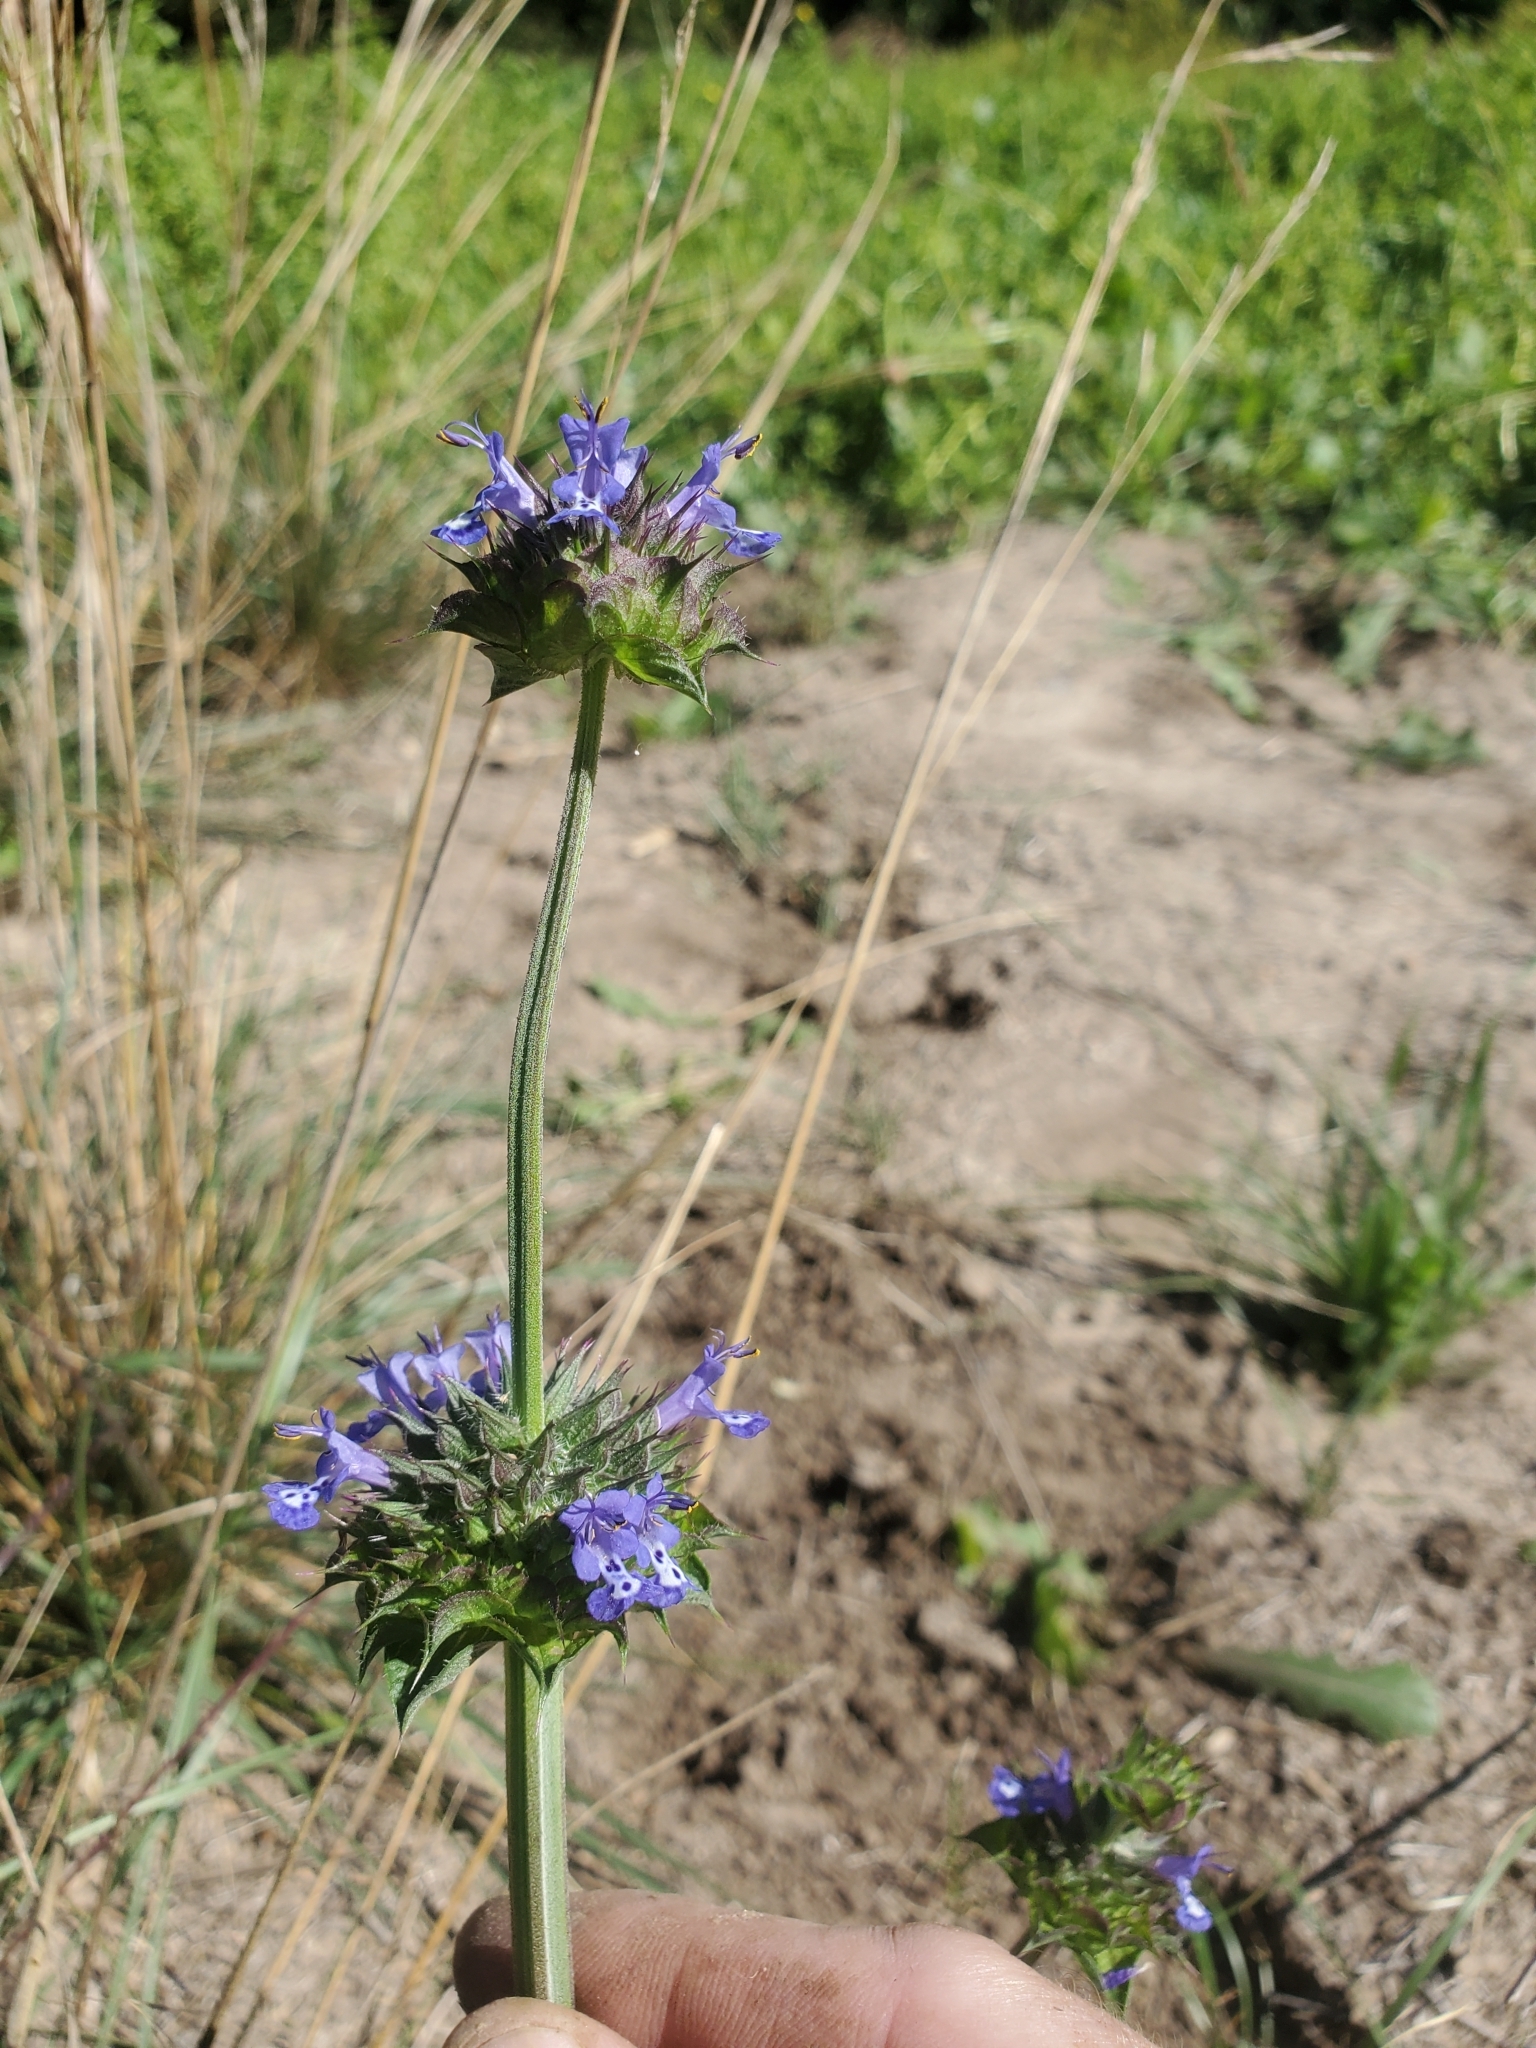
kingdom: Plantae
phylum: Tracheophyta
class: Magnoliopsida
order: Lamiales
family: Lamiaceae
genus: Salvia
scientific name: Salvia columbariae
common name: Chia
